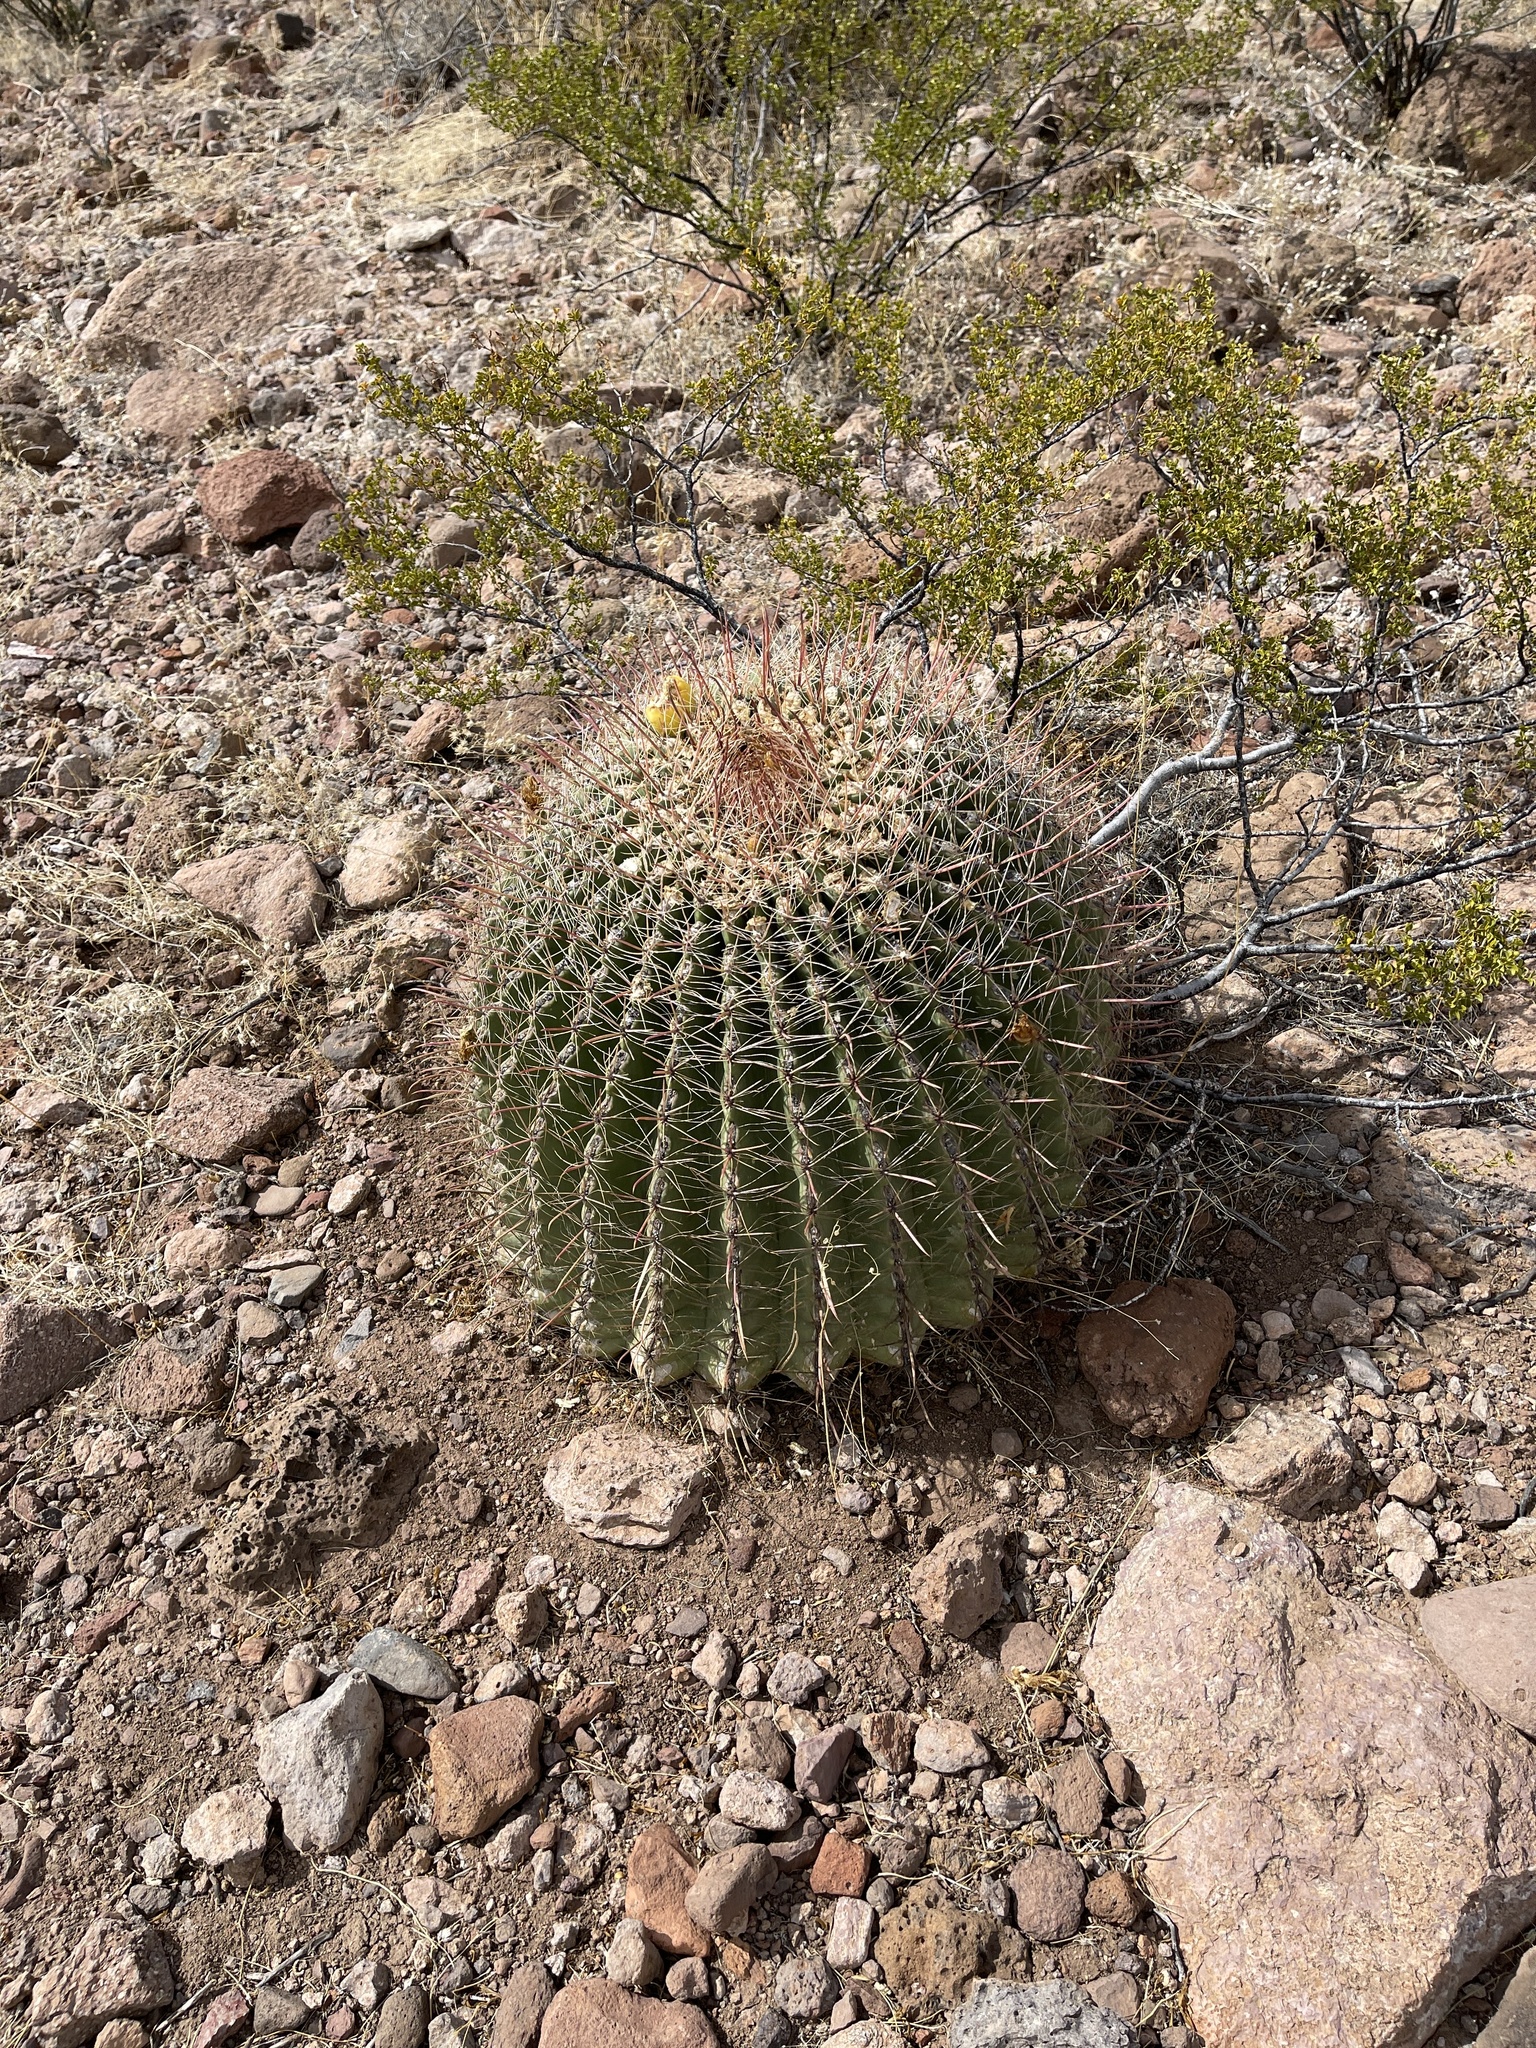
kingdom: Plantae
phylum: Tracheophyta
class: Magnoliopsida
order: Caryophyllales
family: Cactaceae
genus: Ferocactus
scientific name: Ferocactus wislizeni
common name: Candy barrel cactus
